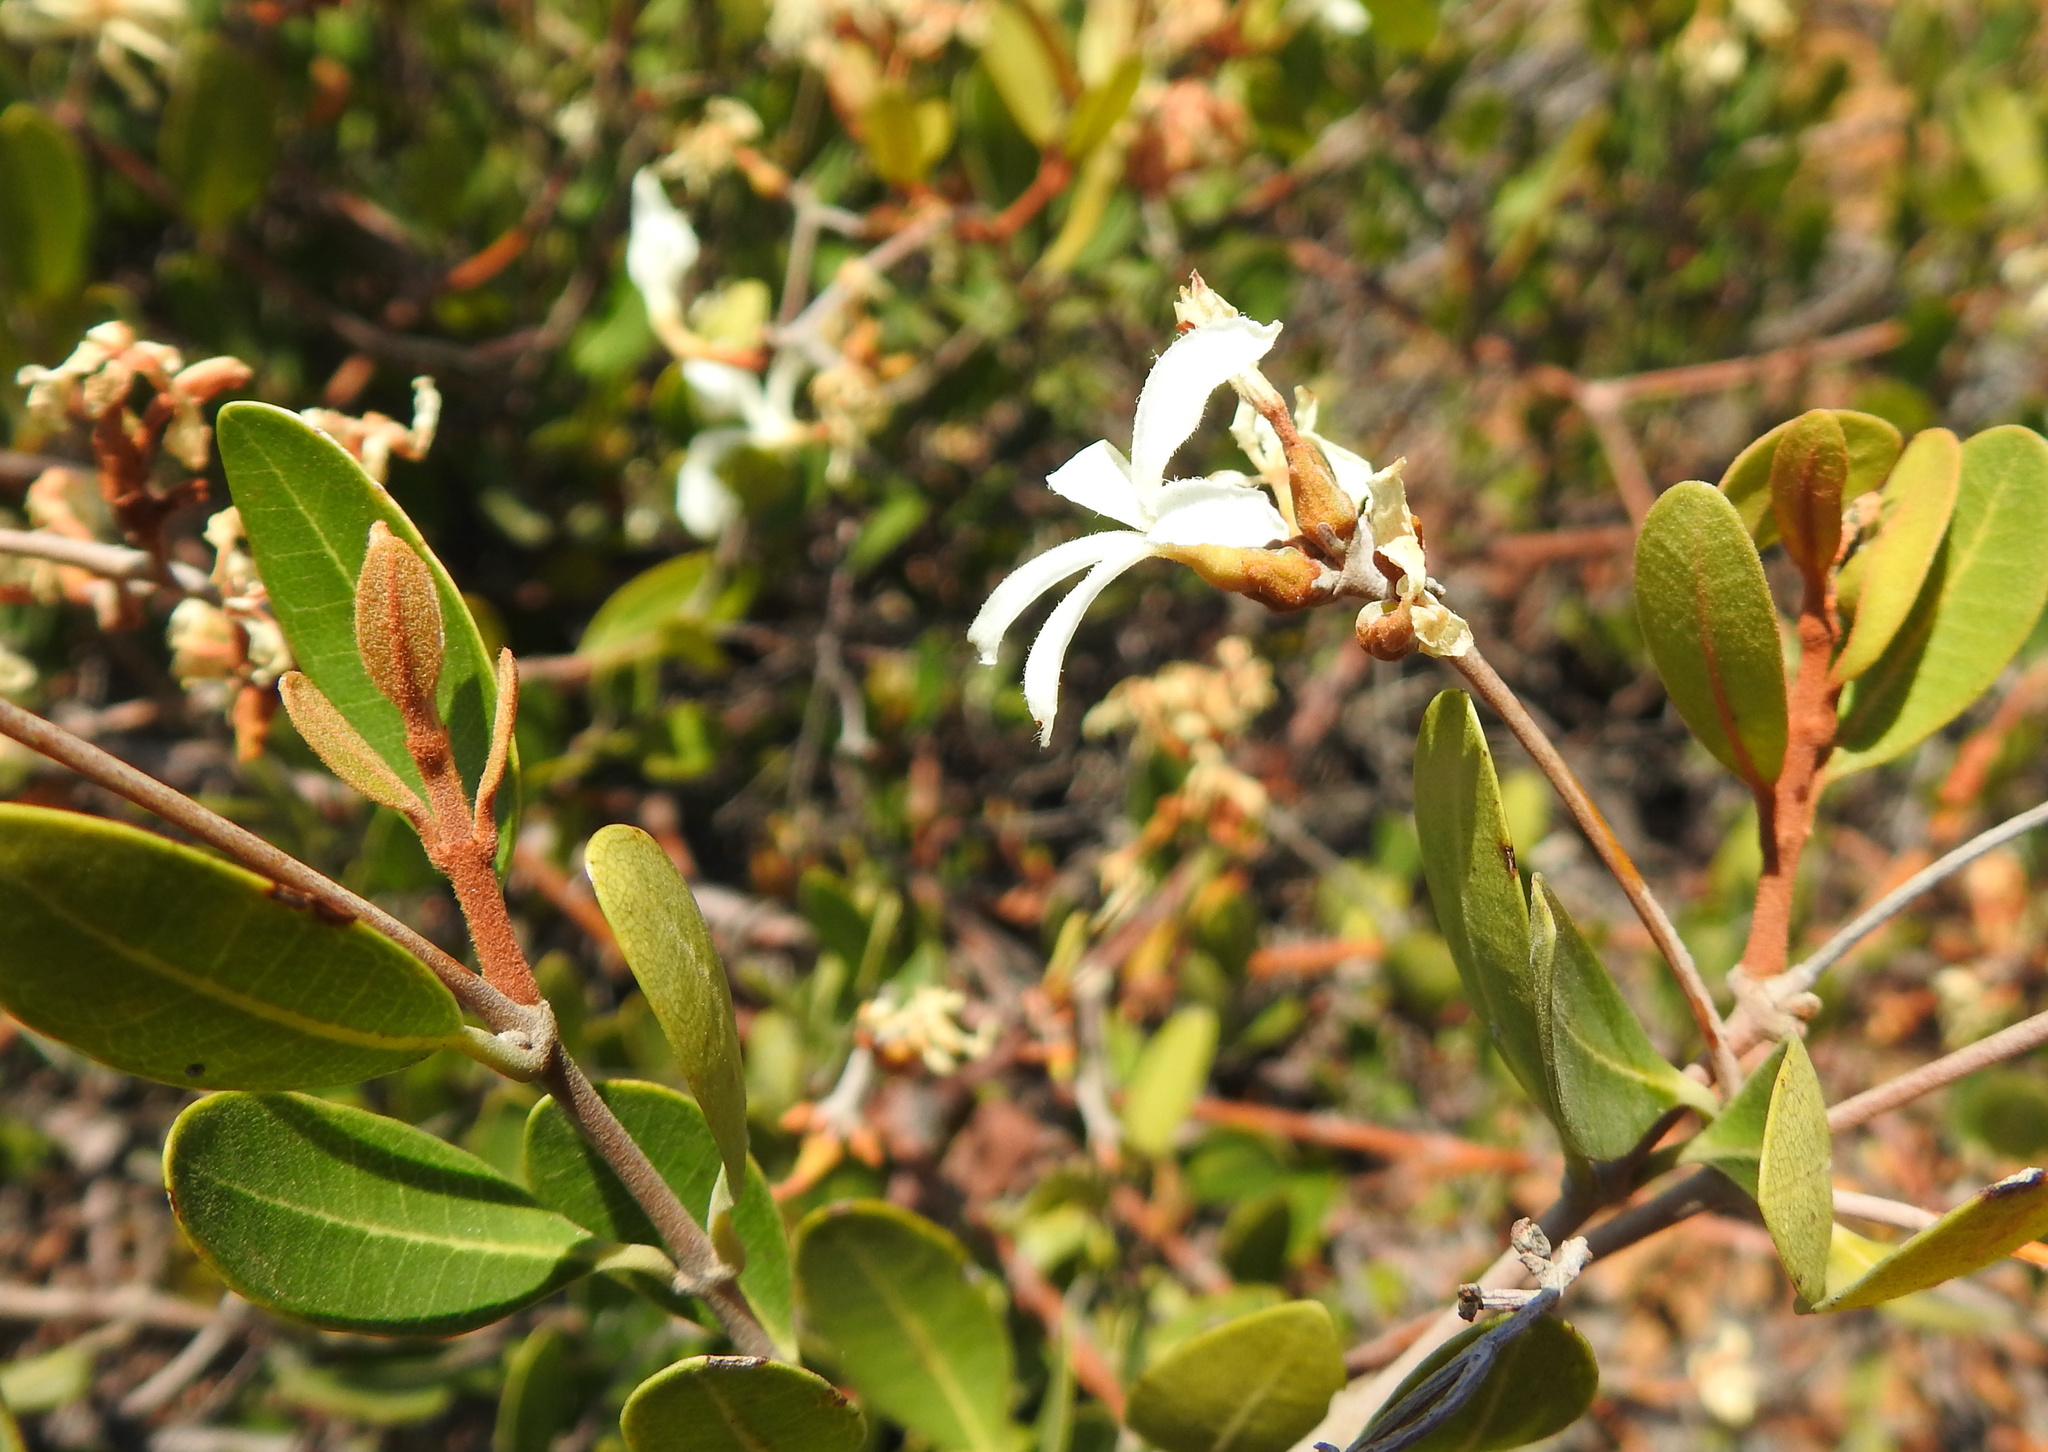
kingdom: Plantae
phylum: Tracheophyta
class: Magnoliopsida
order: Gentianales
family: Apocynaceae
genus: Ancylobothrys
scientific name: Ancylobothrys capensis
